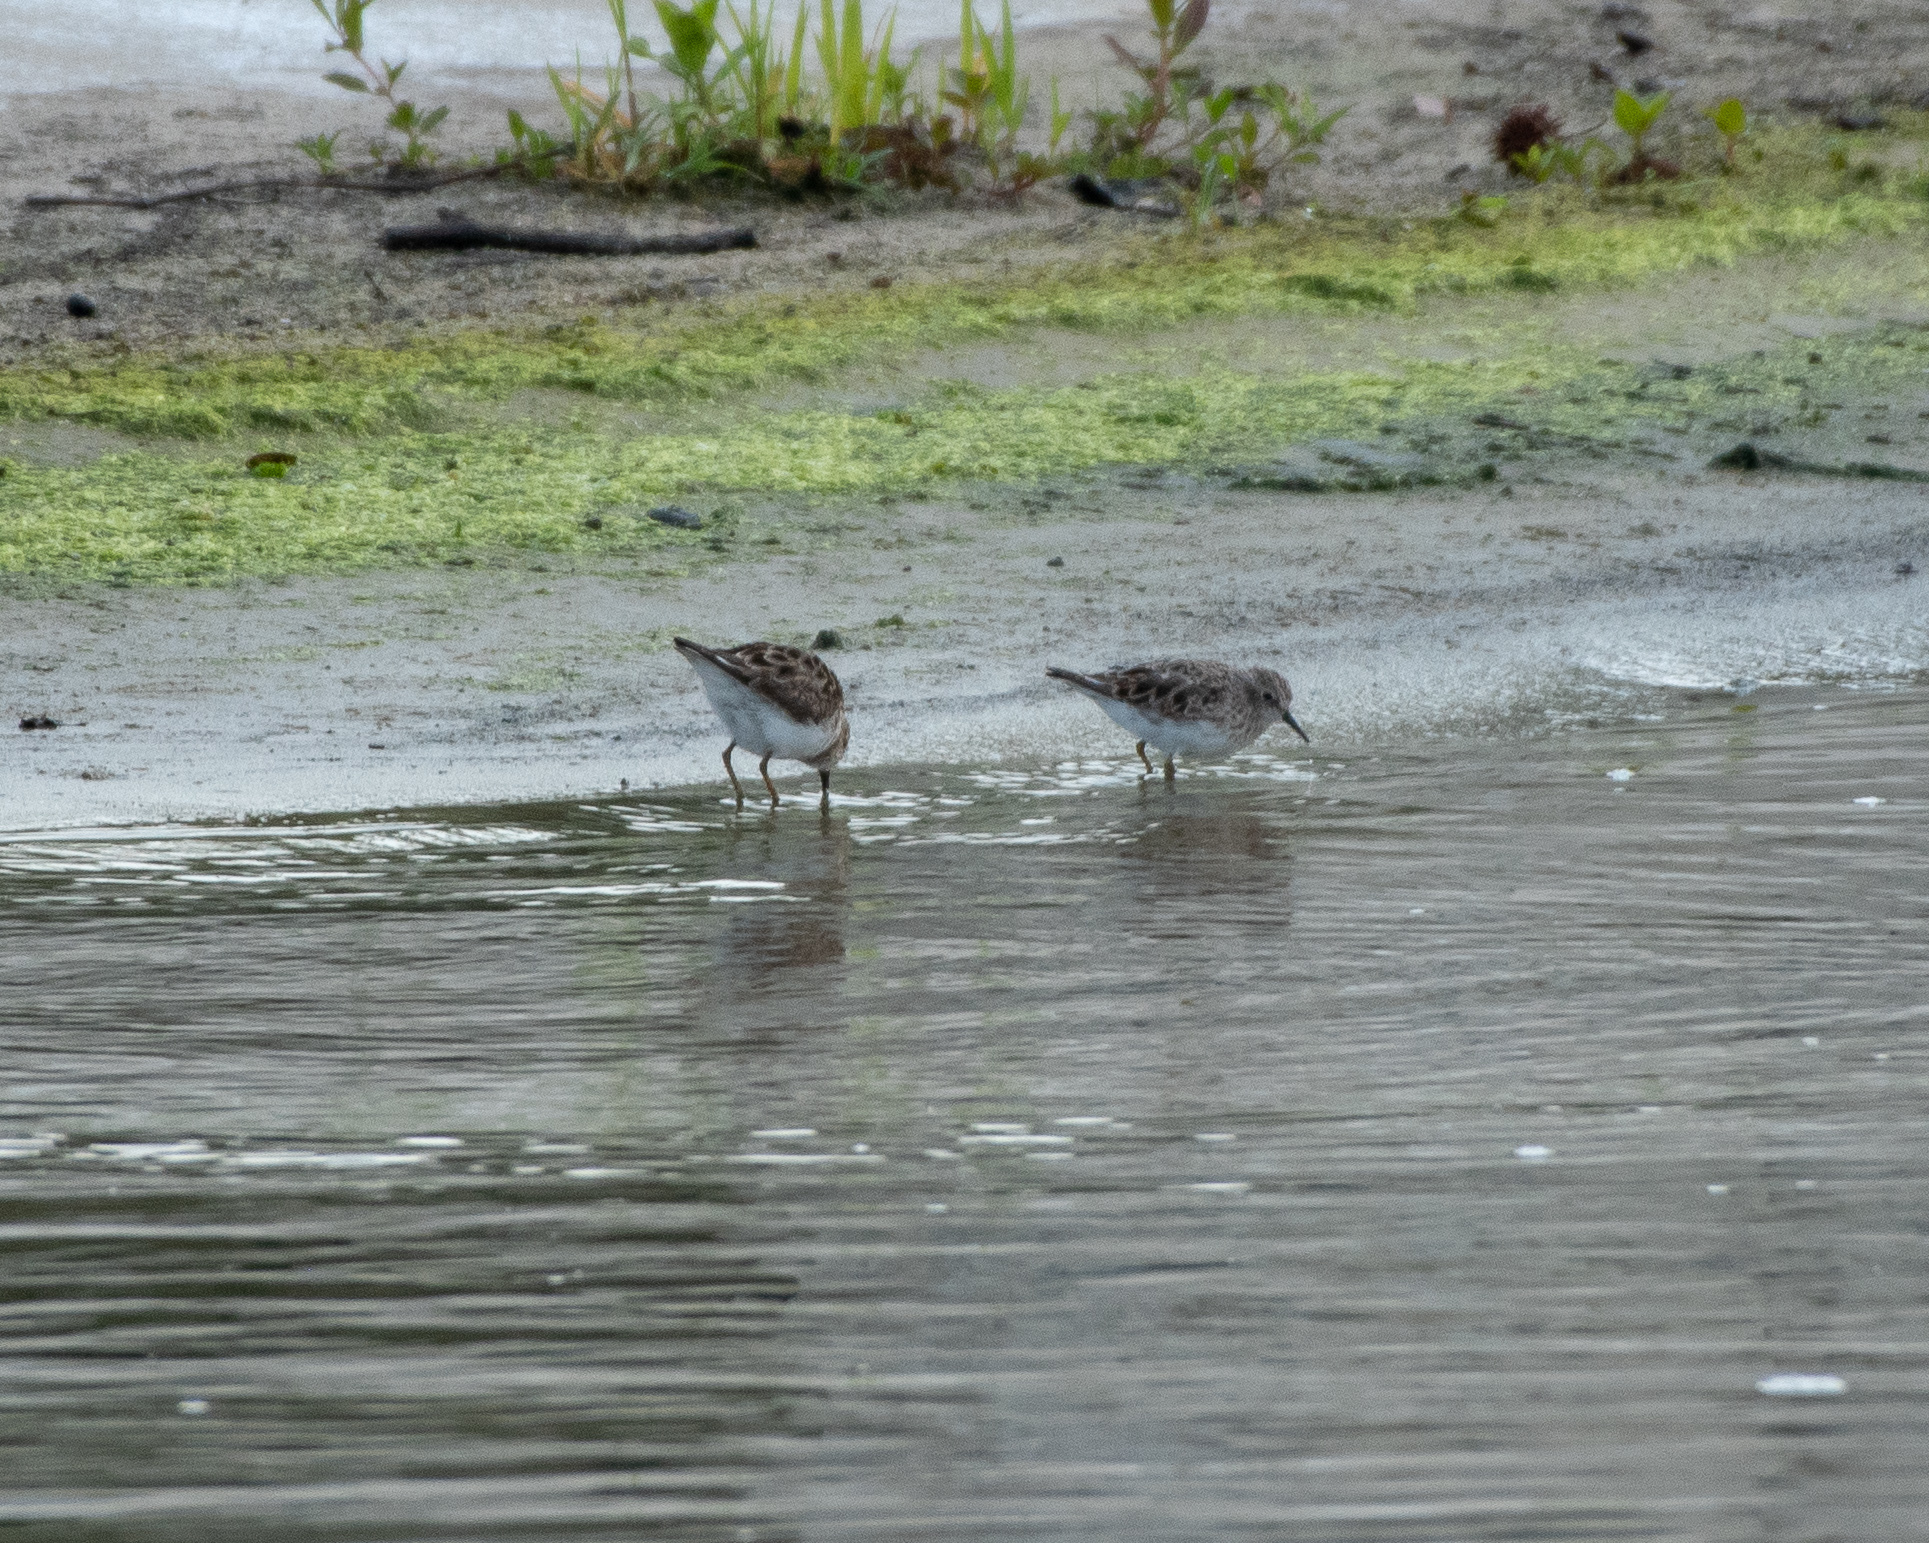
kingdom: Animalia
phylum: Chordata
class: Aves
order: Charadriiformes
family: Scolopacidae
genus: Calidris
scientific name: Calidris minutilla
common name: Least sandpiper
